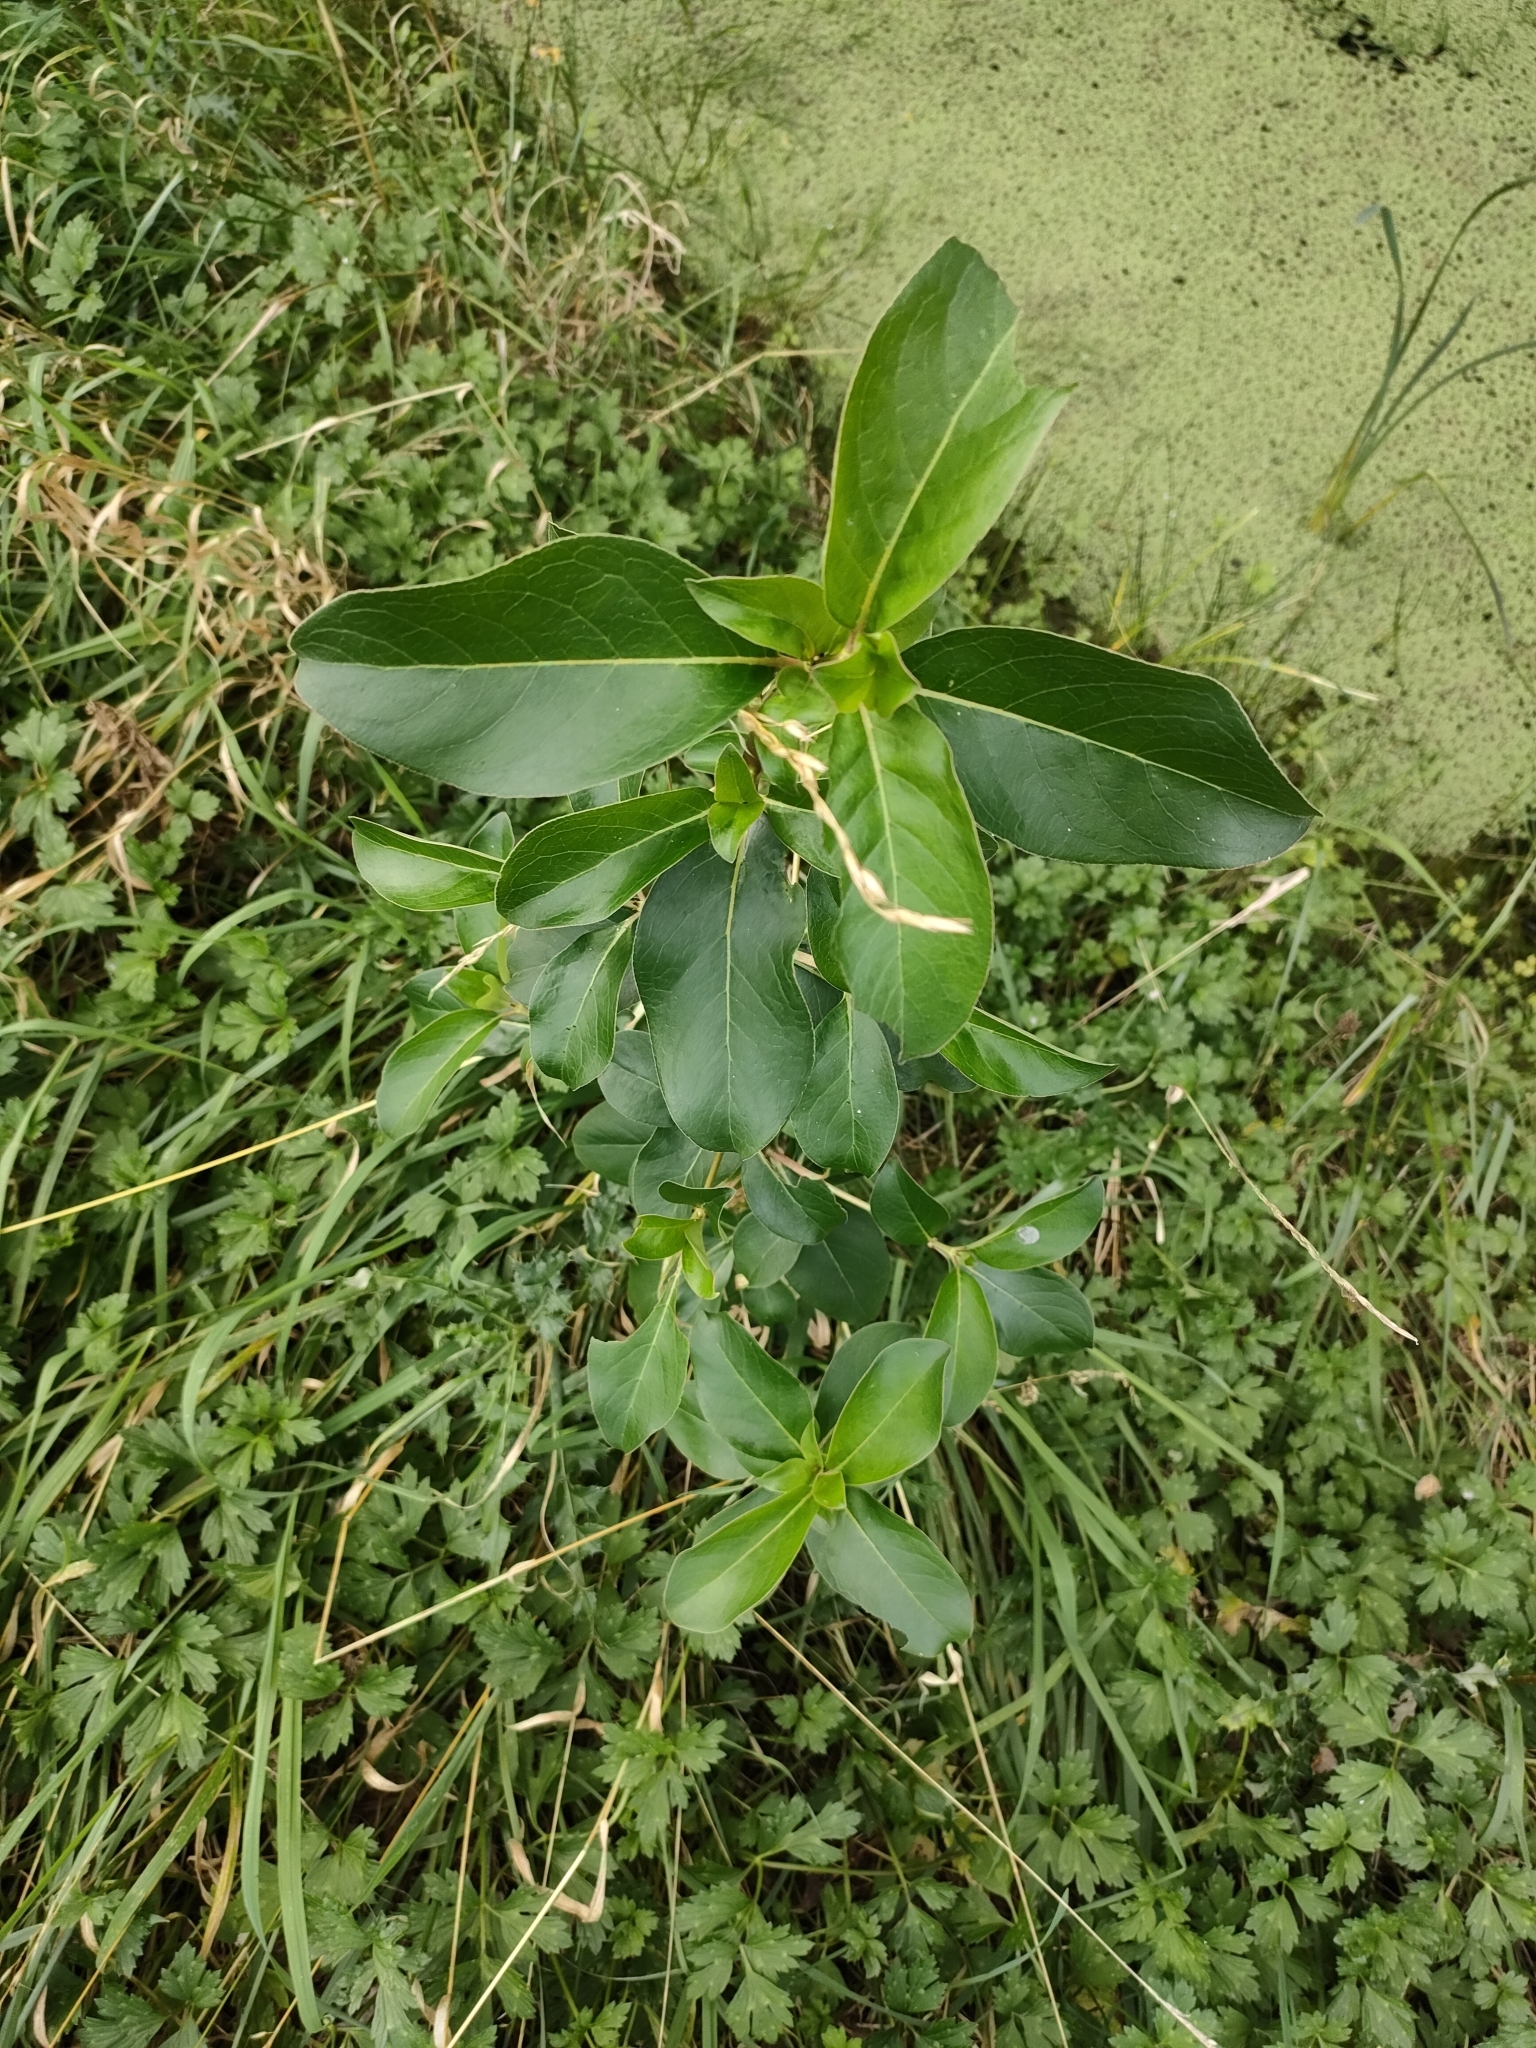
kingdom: Plantae
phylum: Tracheophyta
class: Magnoliopsida
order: Gentianales
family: Rubiaceae
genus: Coprosma
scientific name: Coprosma robusta
